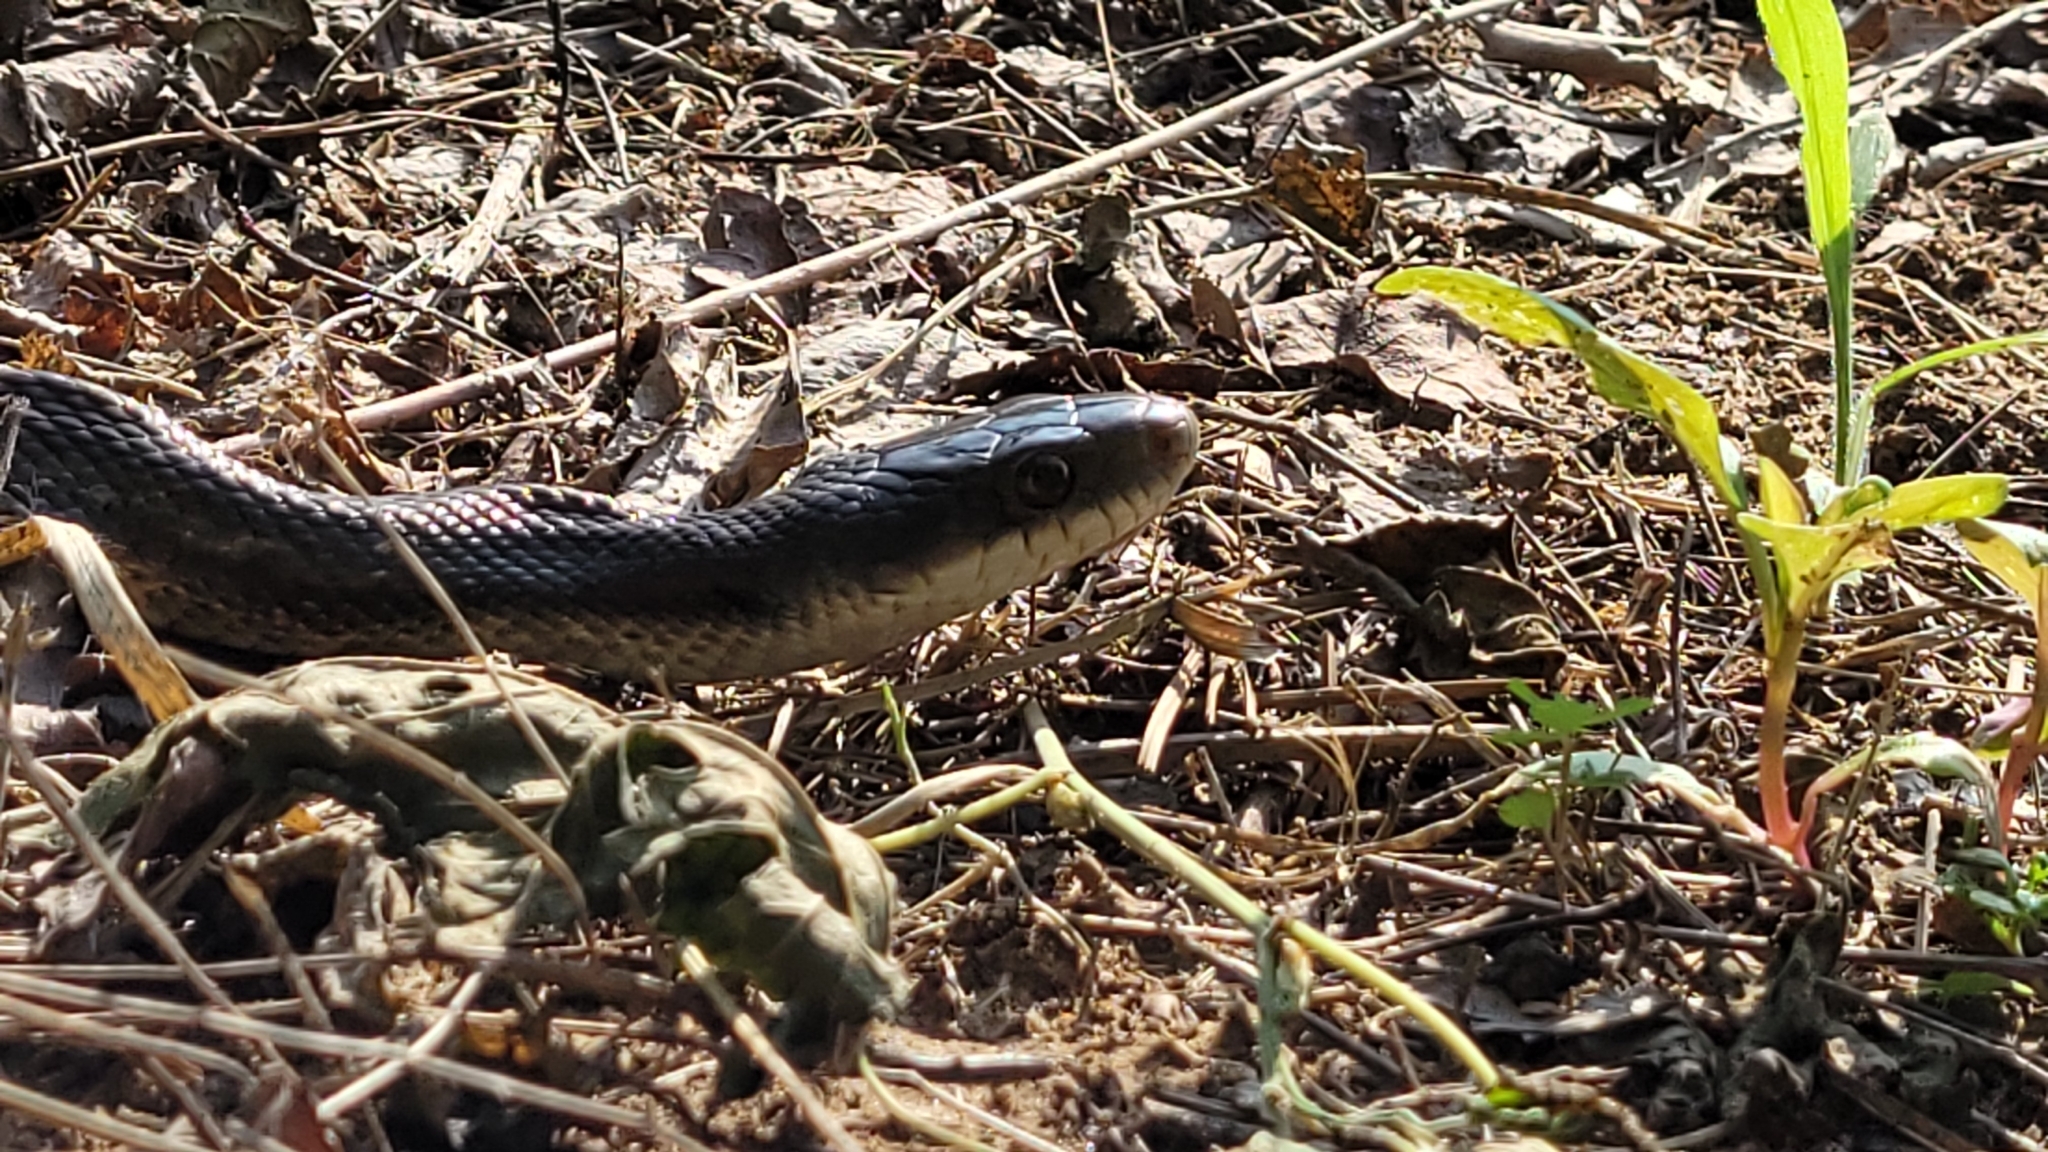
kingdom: Animalia
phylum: Chordata
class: Squamata
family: Colubridae
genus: Pantherophis
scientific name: Pantherophis obsoletus
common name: Black rat snake
